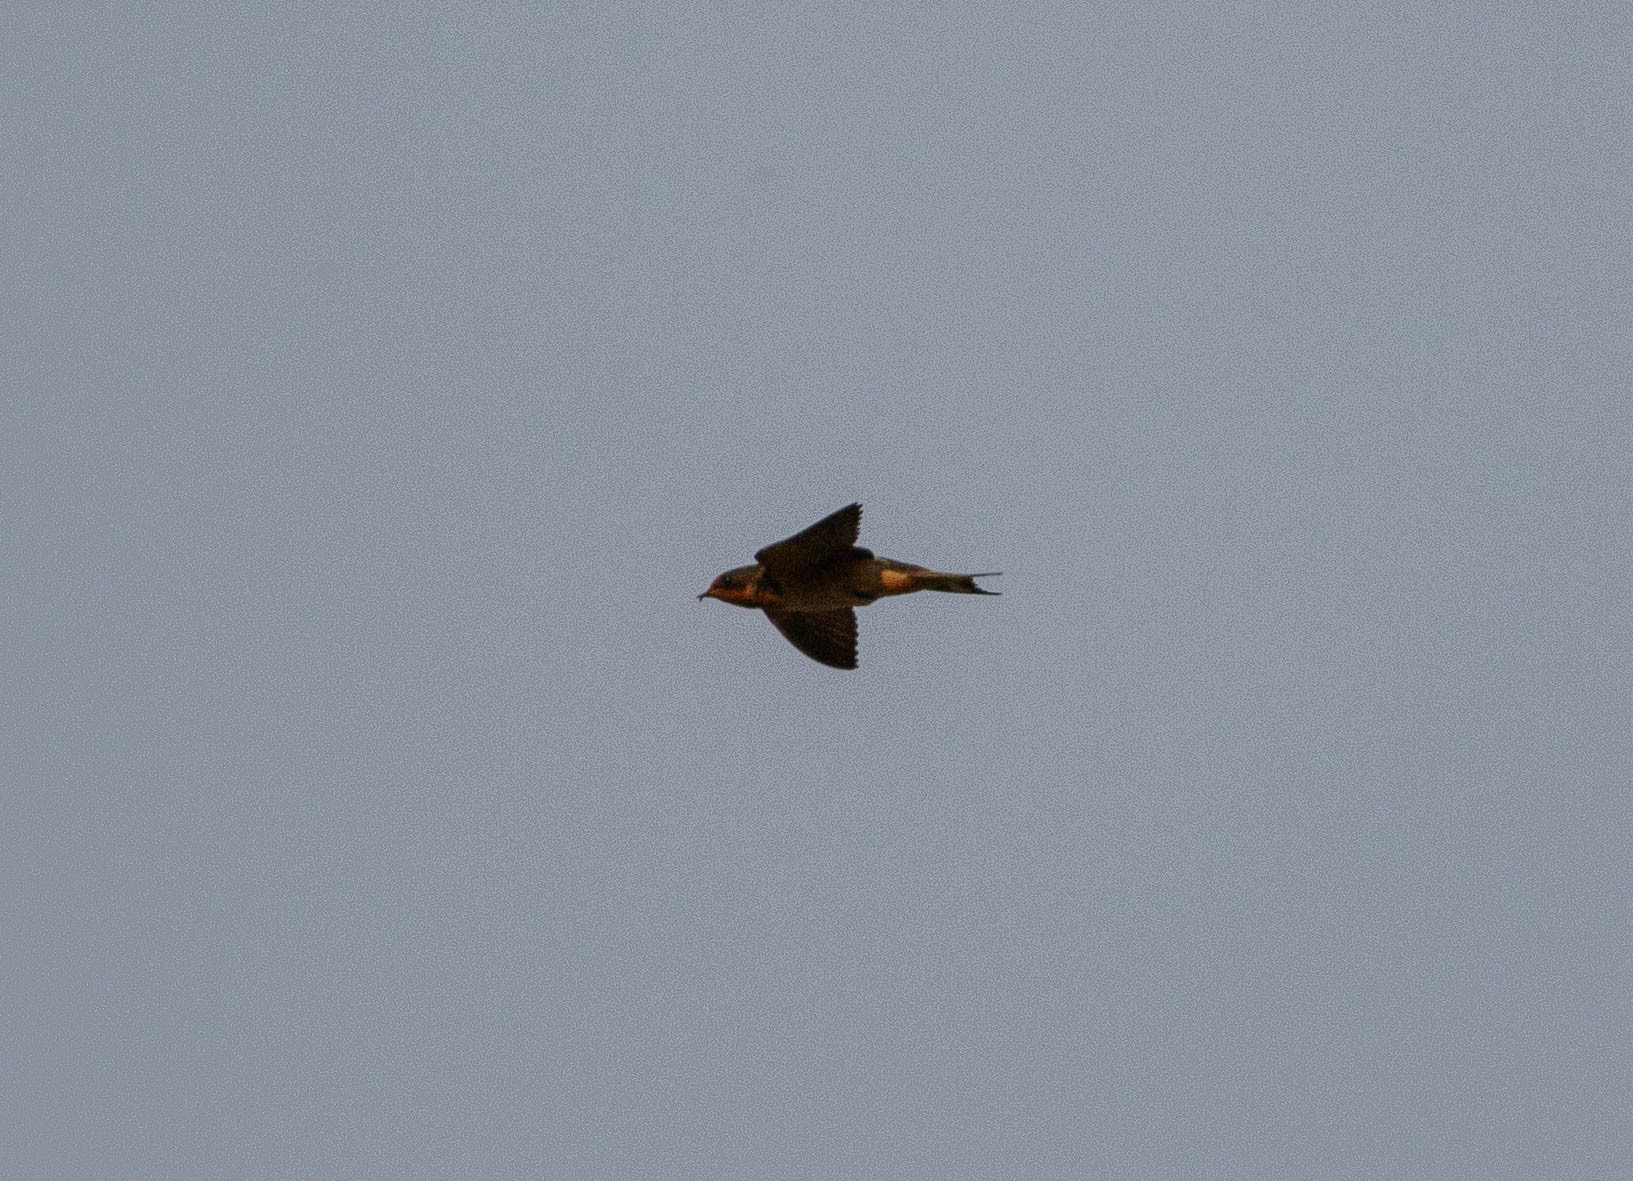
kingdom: Animalia
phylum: Chordata
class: Aves
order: Passeriformes
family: Hirundinidae
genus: Hirundo
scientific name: Hirundo rustica
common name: Barn swallow
